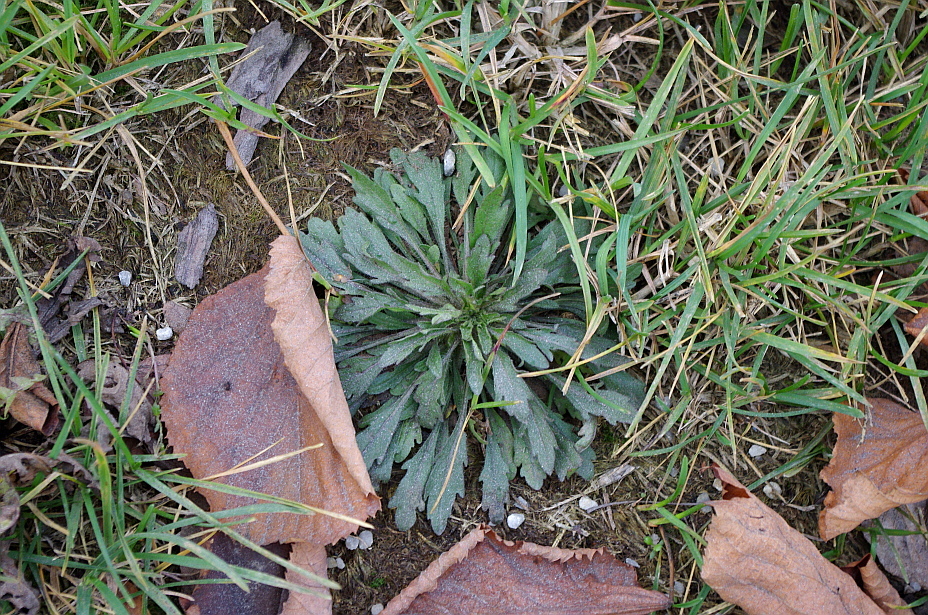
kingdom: Plantae
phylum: Tracheophyta
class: Magnoliopsida
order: Asterales
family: Asteraceae
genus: Erigeron
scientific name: Erigeron canadensis
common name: Canadian fleabane
